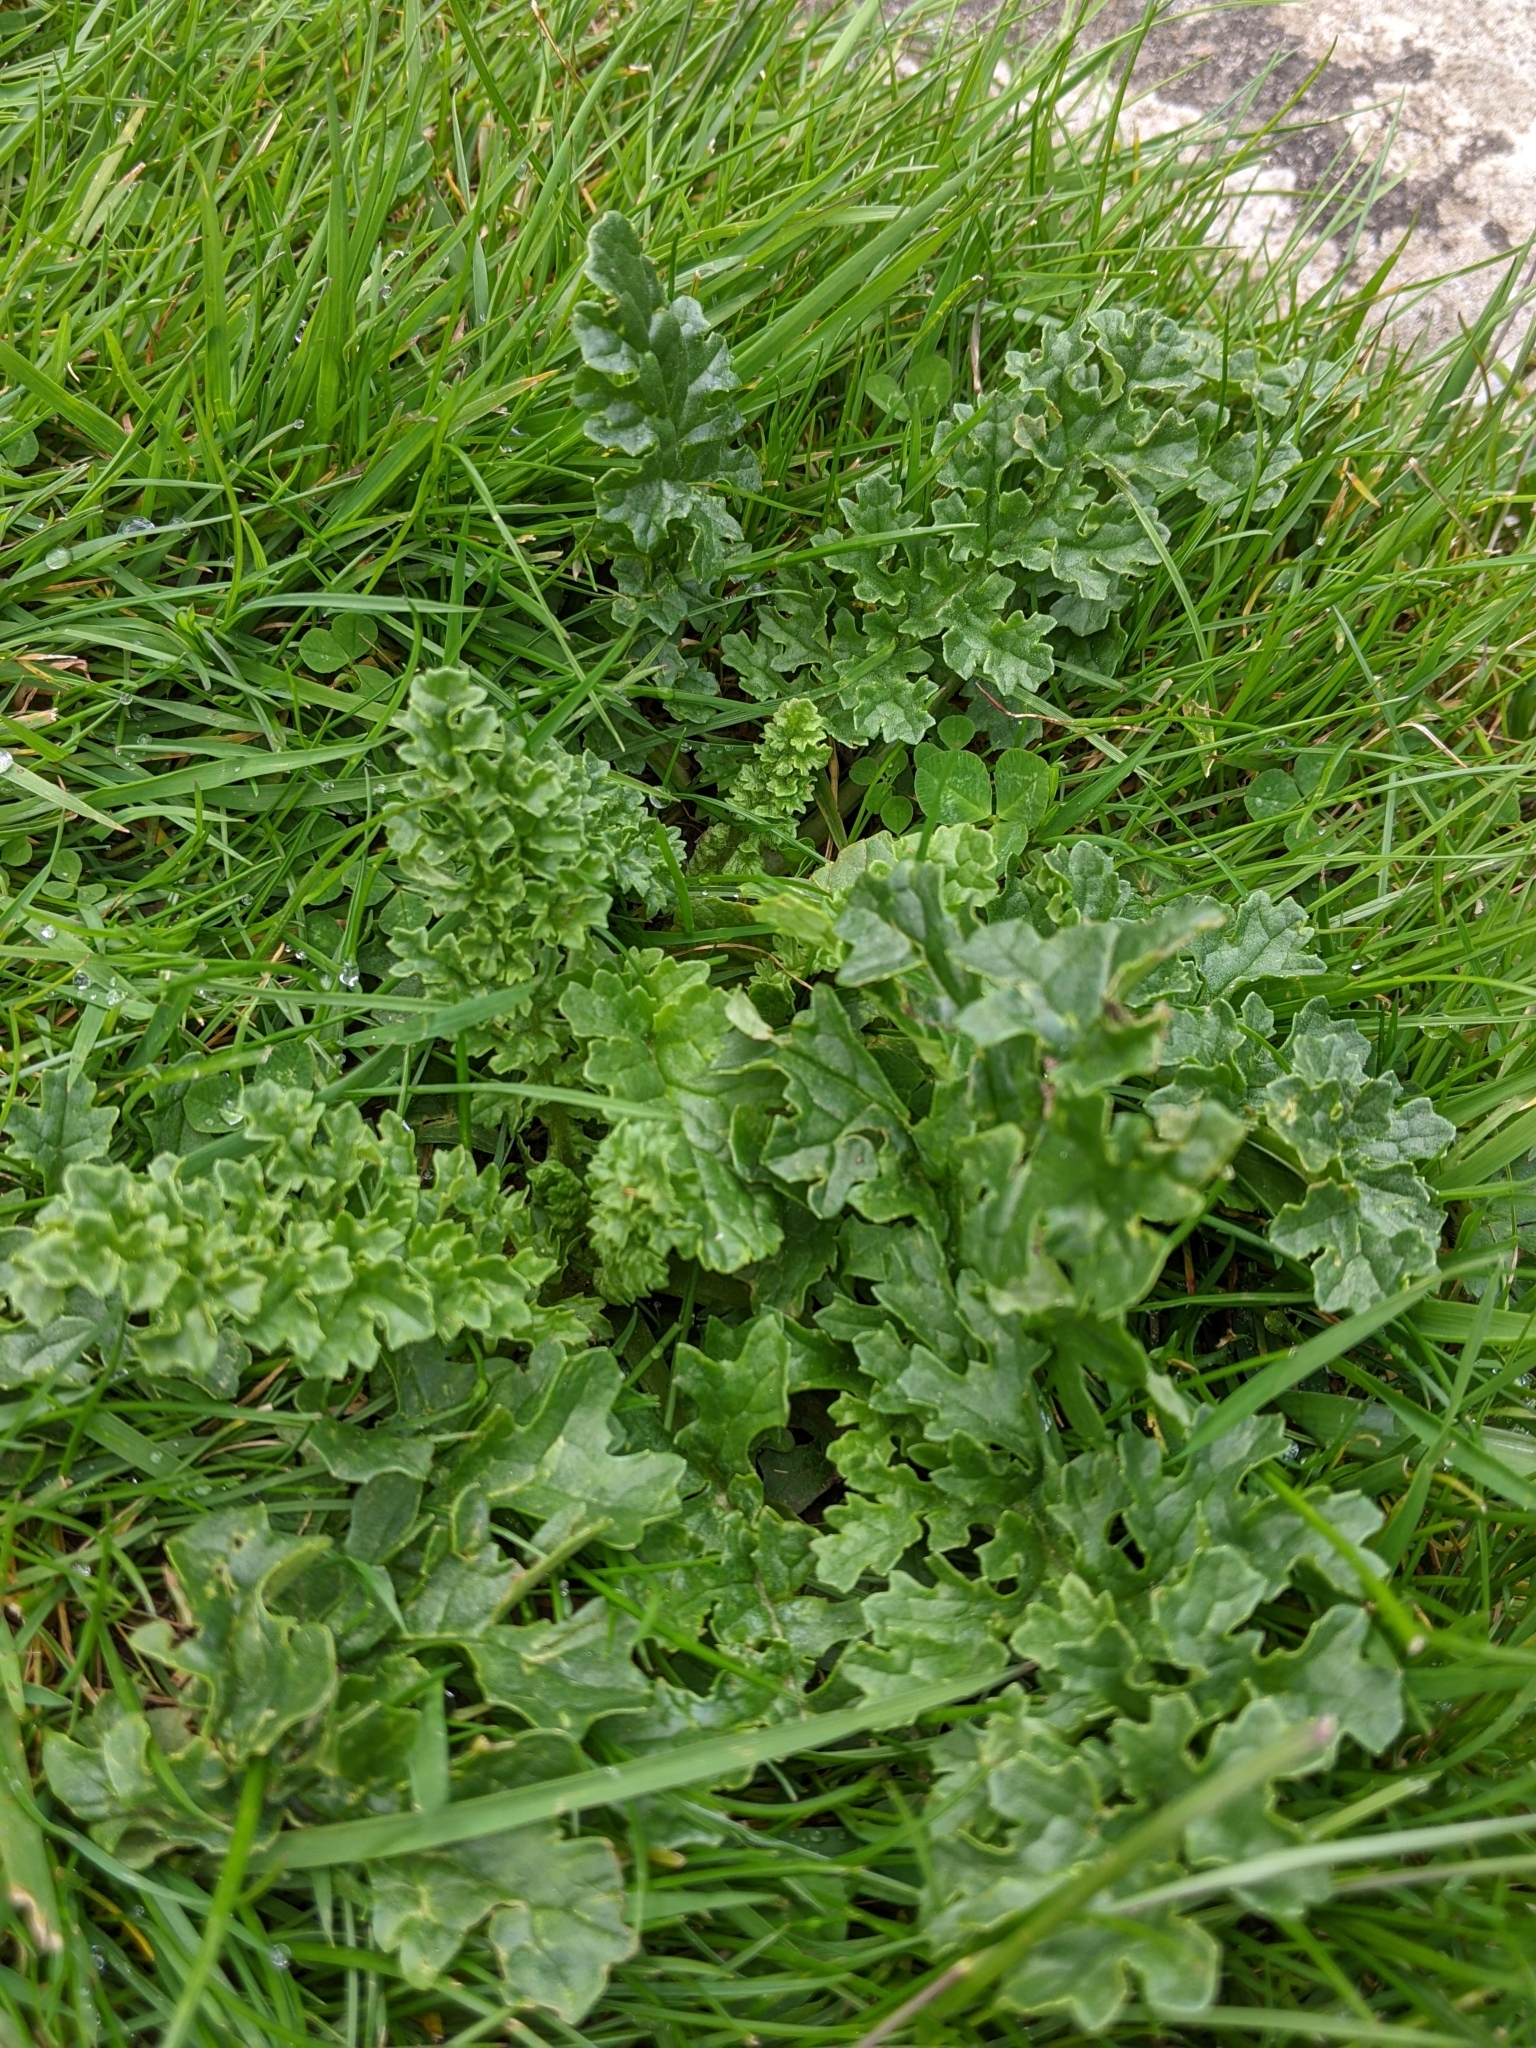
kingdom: Plantae
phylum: Tracheophyta
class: Magnoliopsida
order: Asterales
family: Asteraceae
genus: Jacobaea
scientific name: Jacobaea vulgaris
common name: Stinking willie
